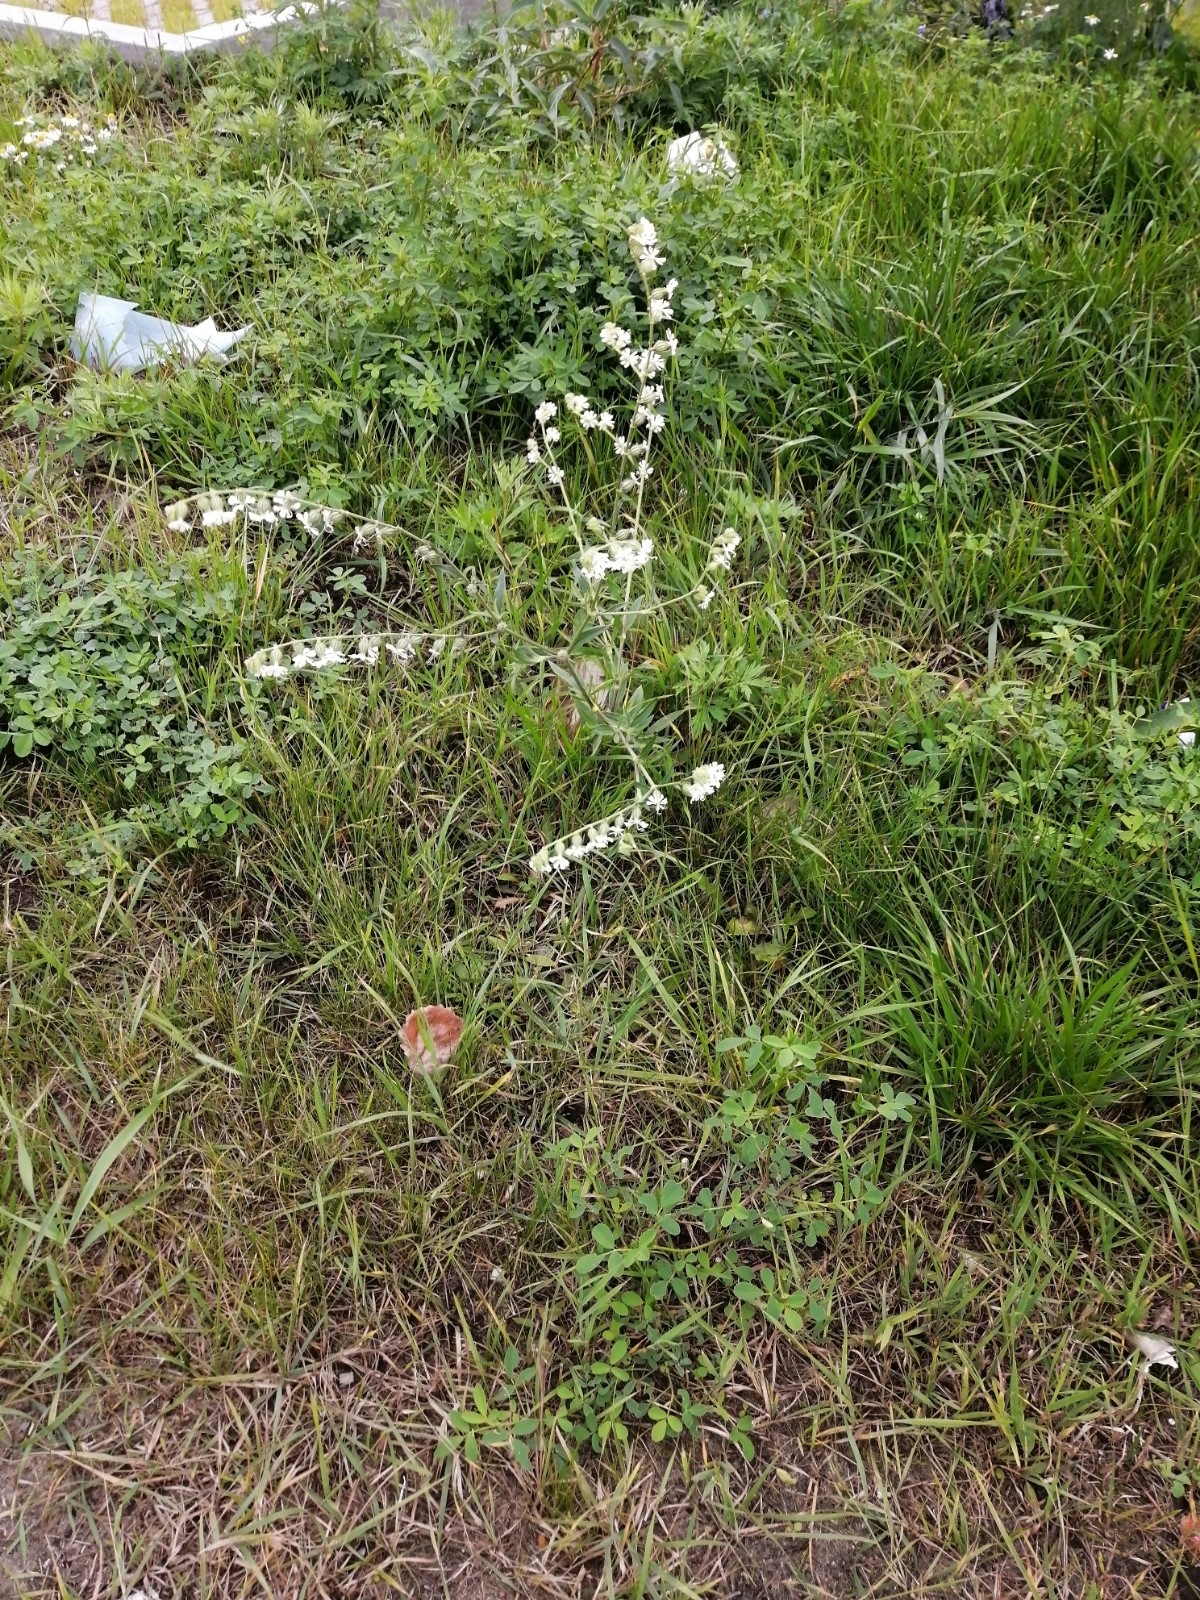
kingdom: Plantae
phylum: Tracheophyta
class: Magnoliopsida
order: Caryophyllales
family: Caryophyllaceae
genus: Silene
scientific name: Silene dichotoma
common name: Forked catchfly
